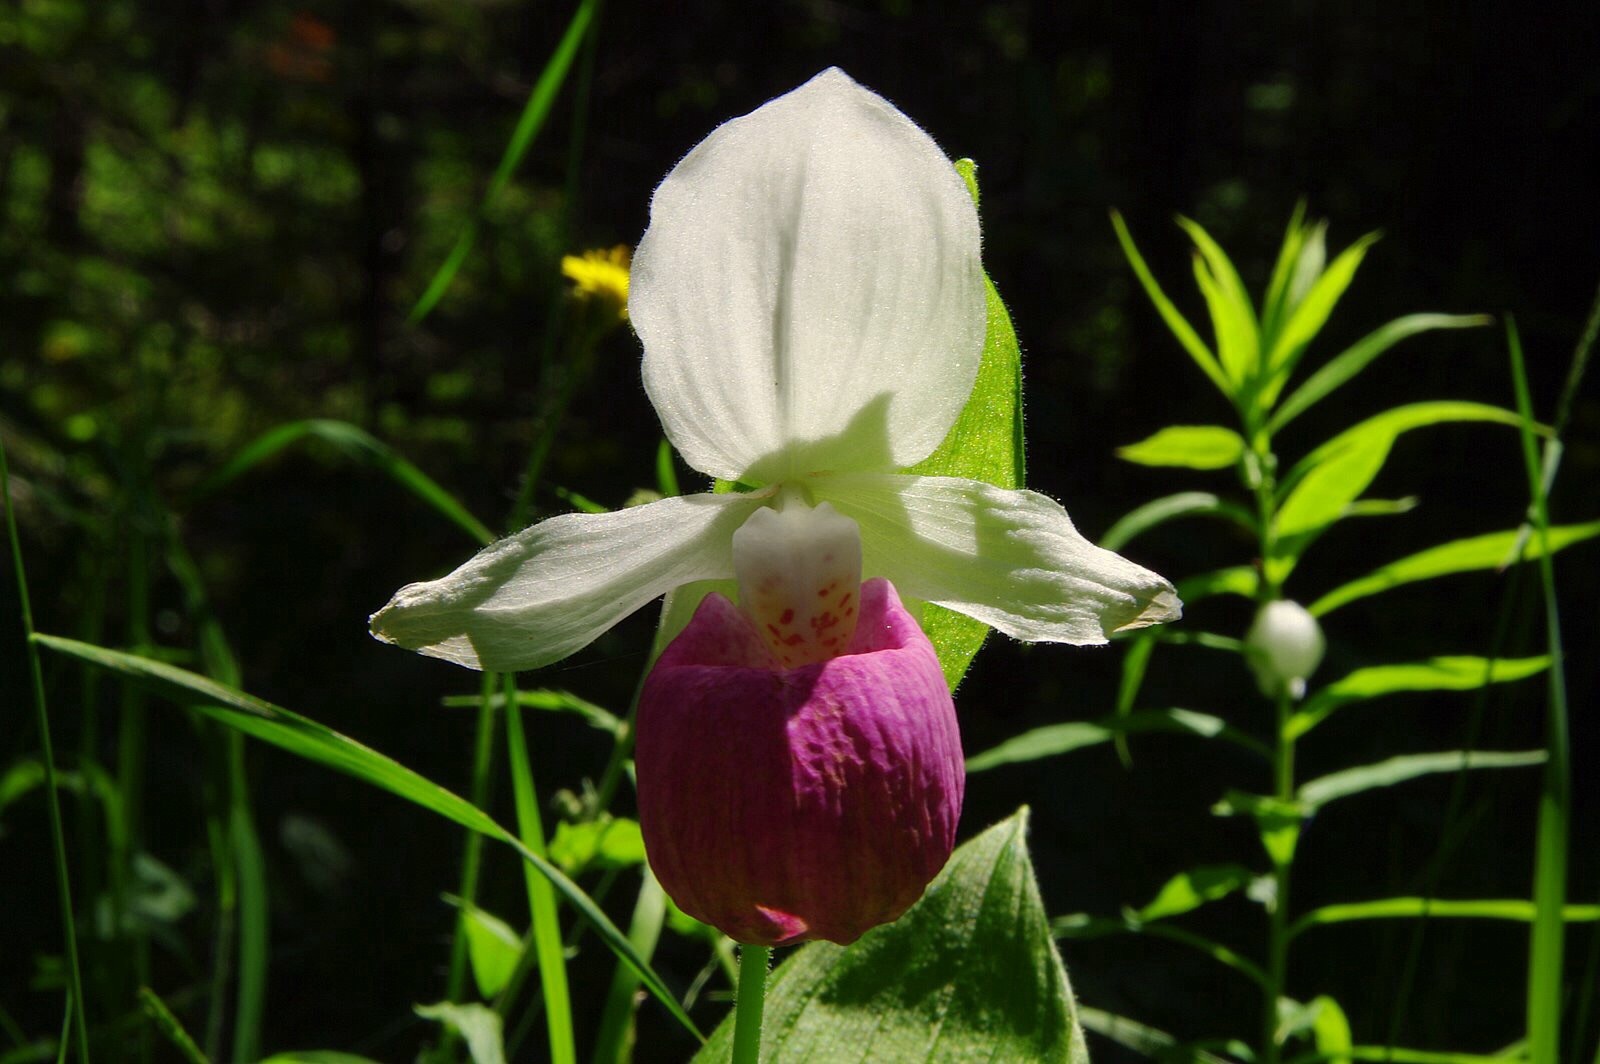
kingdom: Plantae
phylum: Tracheophyta
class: Liliopsida
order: Asparagales
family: Orchidaceae
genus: Cypripedium
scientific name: Cypripedium reginae
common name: Queen lady's-slipper
